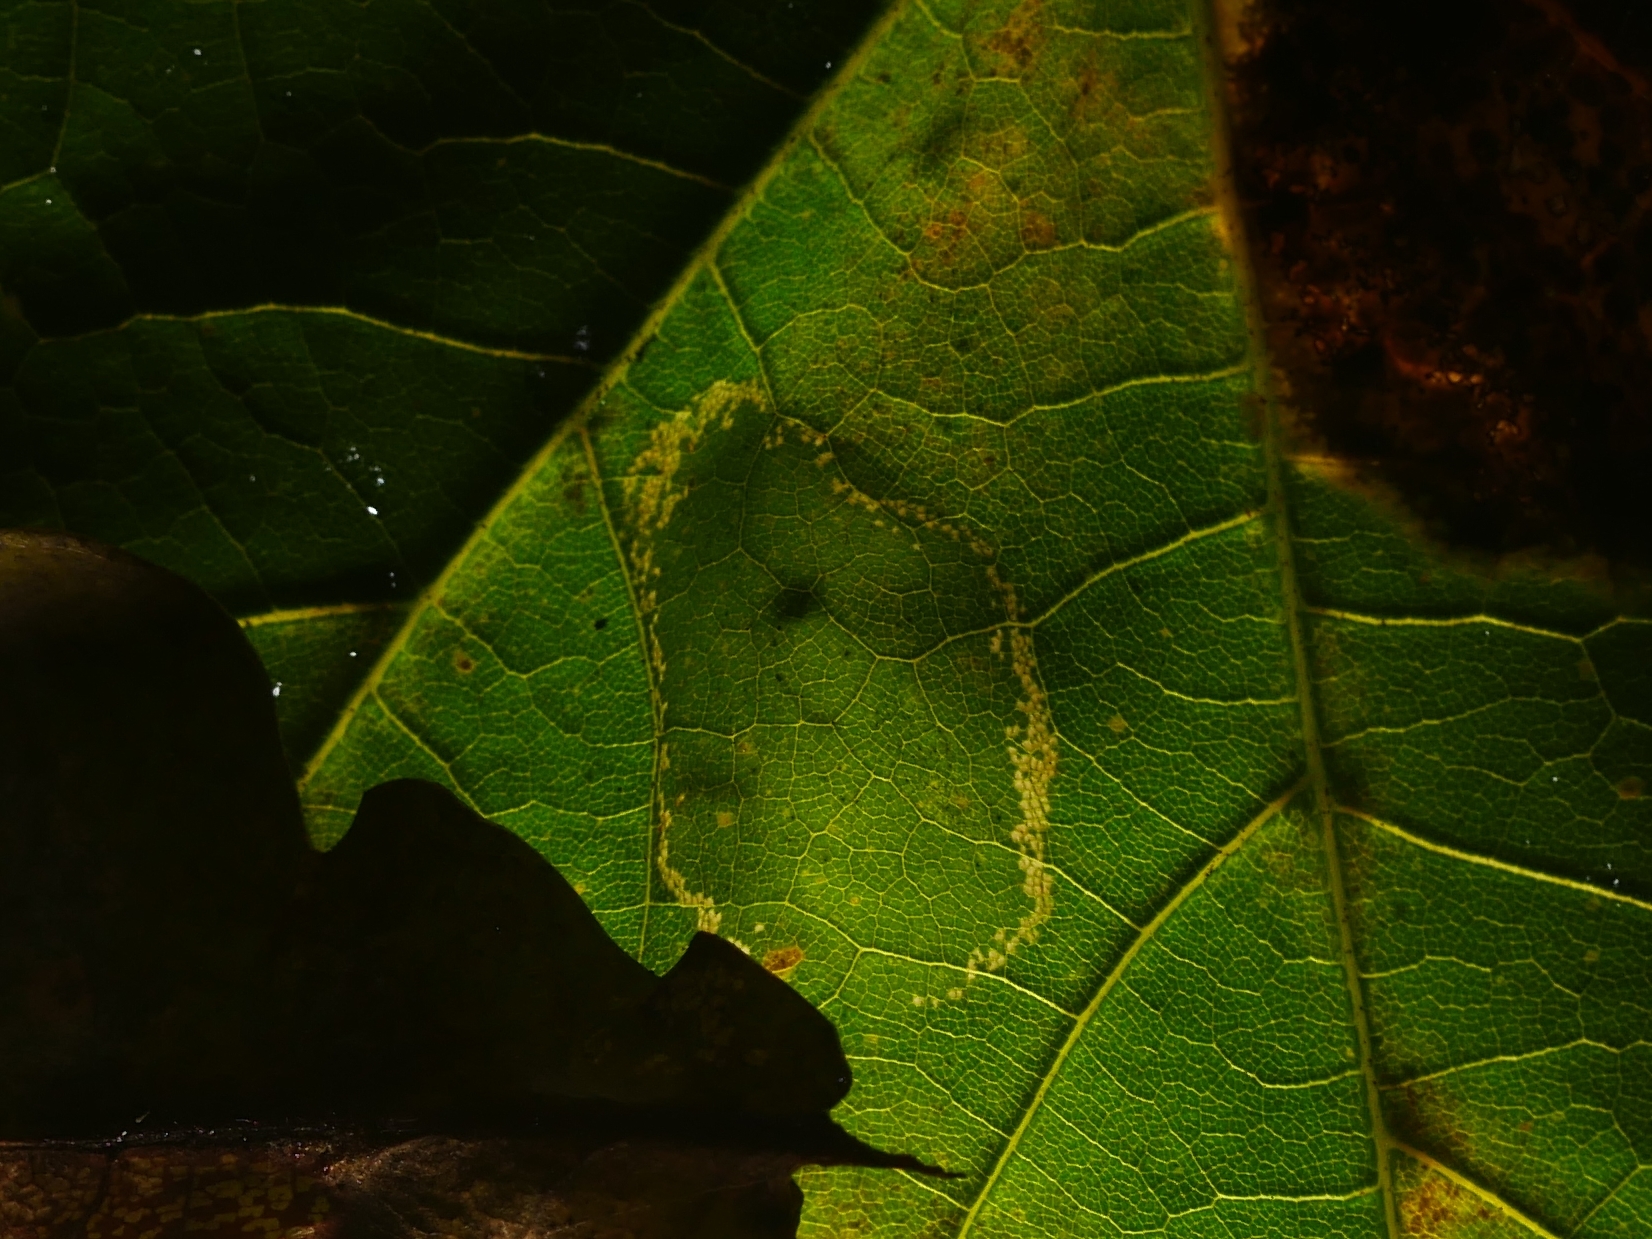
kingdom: Animalia
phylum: Arthropoda
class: Insecta
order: Lepidoptera
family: Gracillariidae
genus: Phyllonorycter
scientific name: Phyllonorycter joannisi
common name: White-bodied midget
